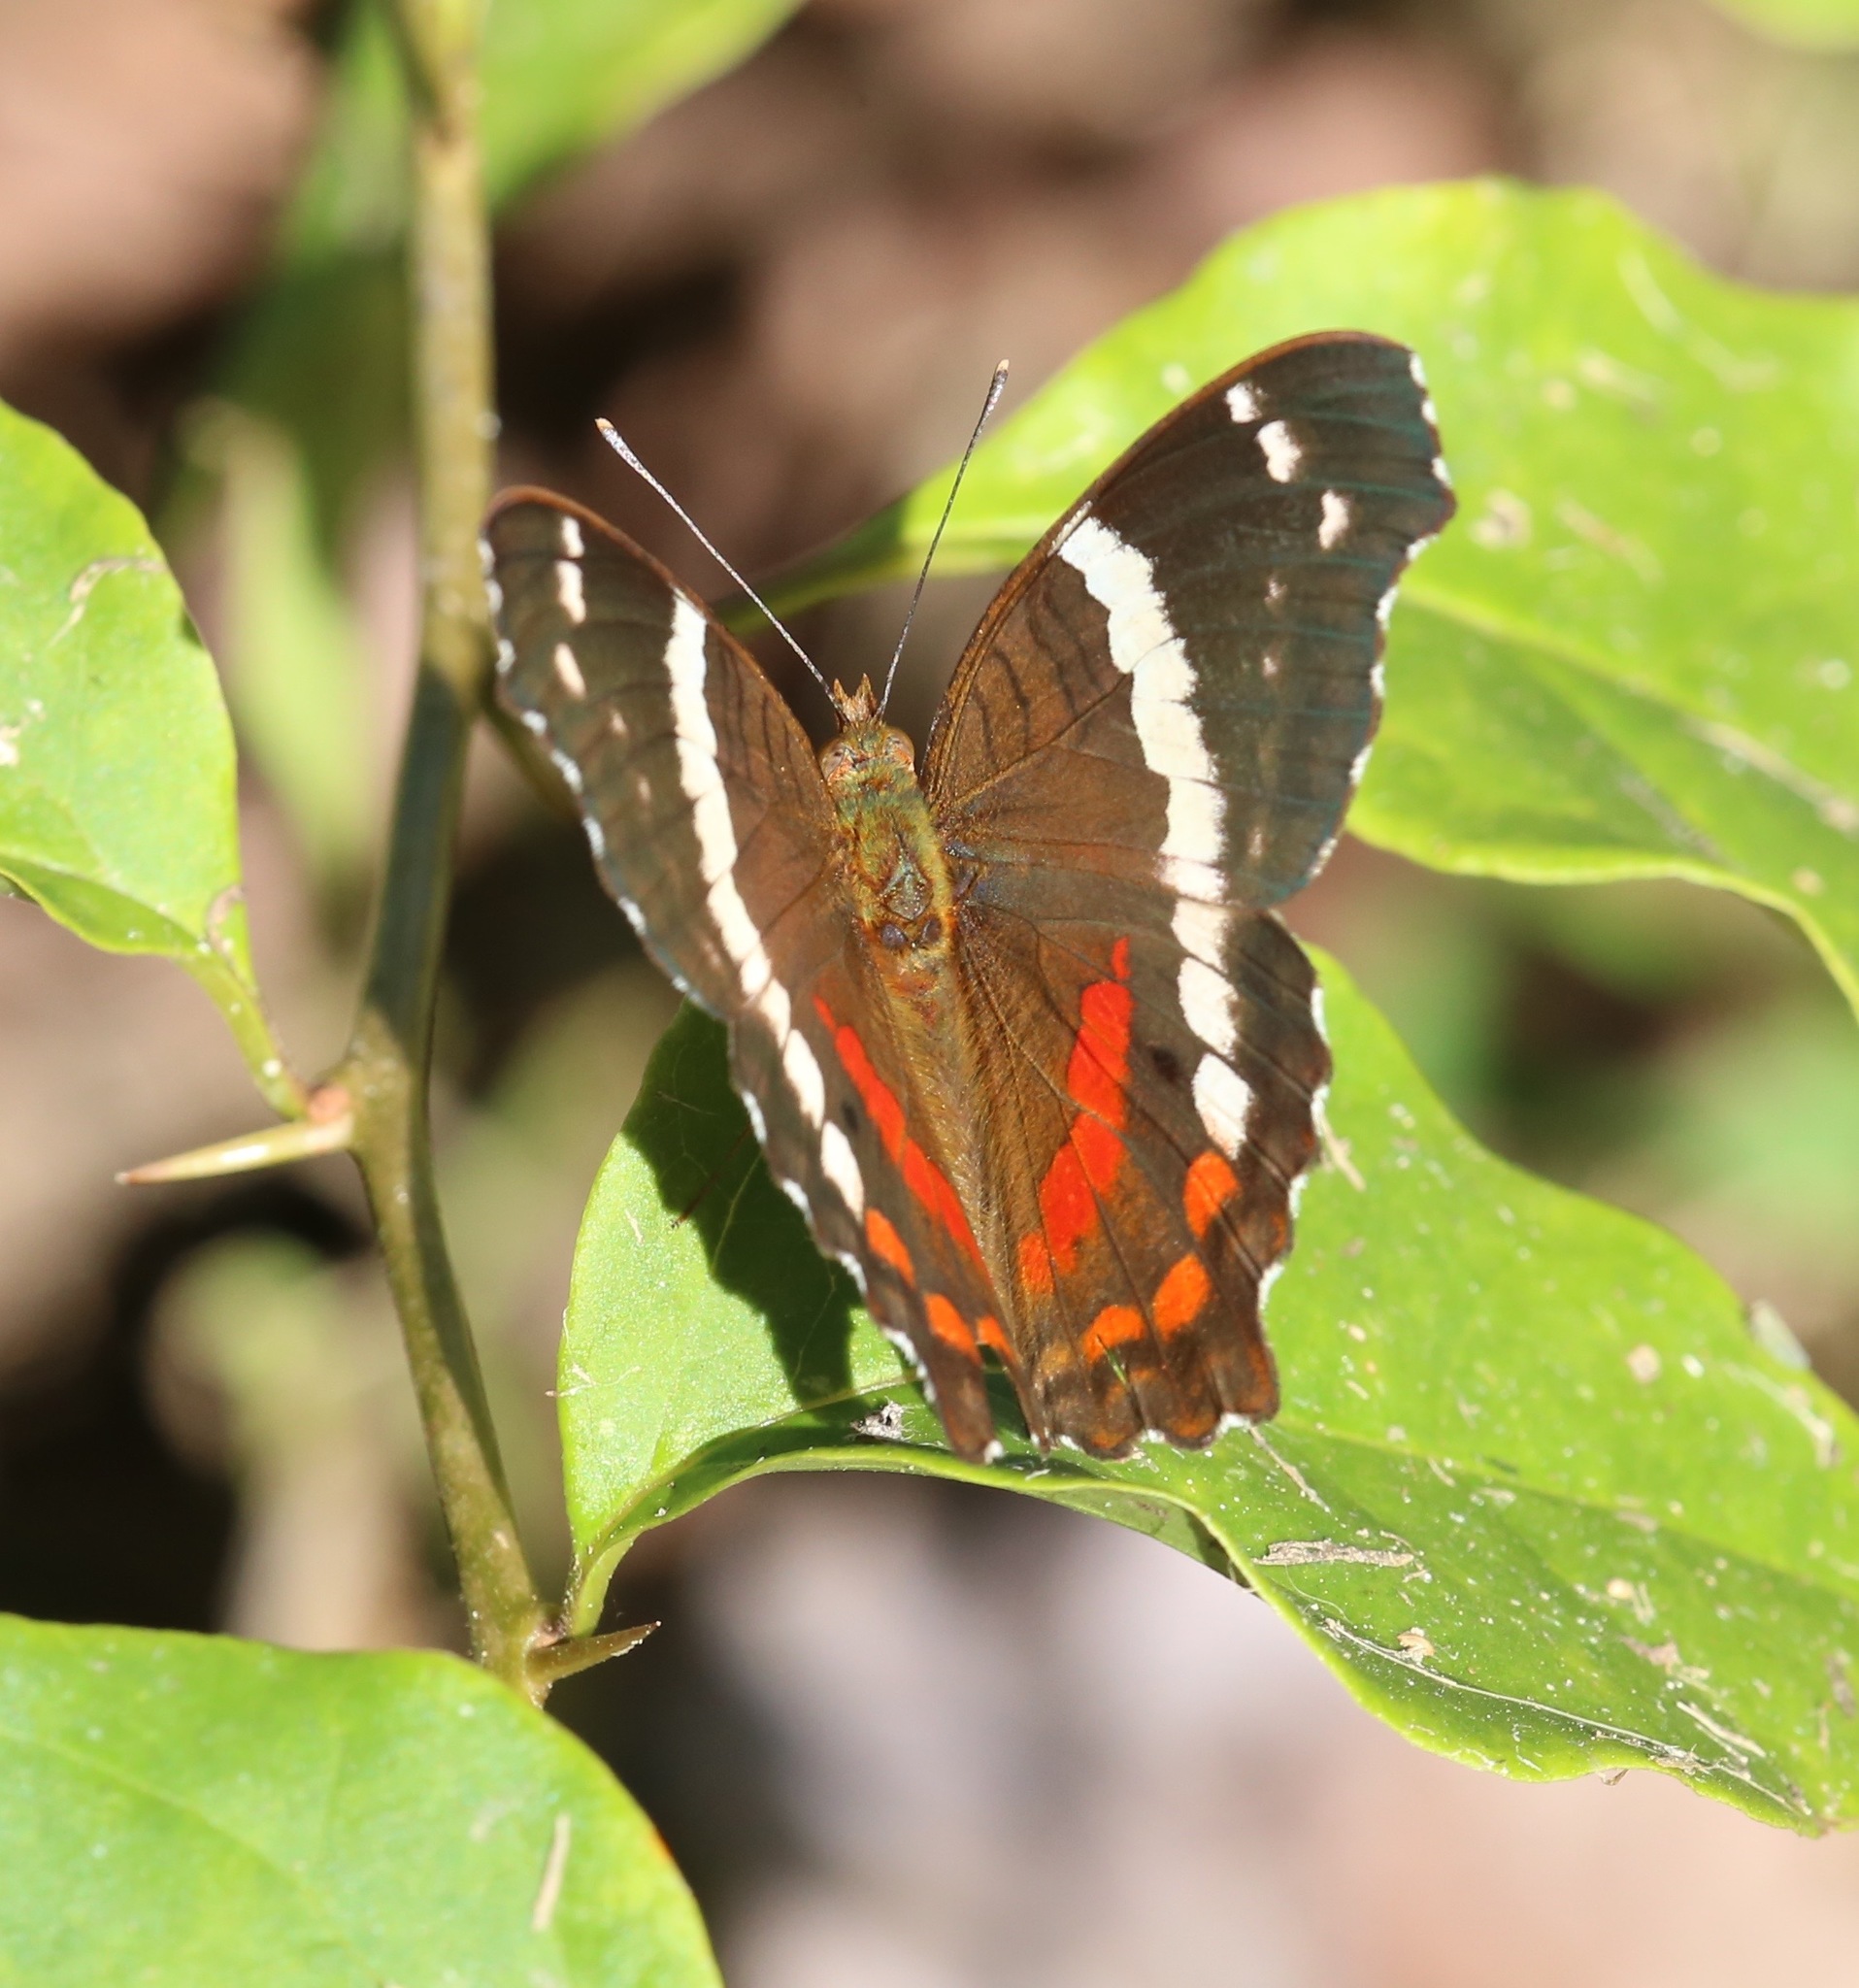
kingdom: Animalia
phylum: Arthropoda
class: Insecta
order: Lepidoptera
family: Nymphalidae
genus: Anartia
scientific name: Anartia fatima
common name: Banded peacock
